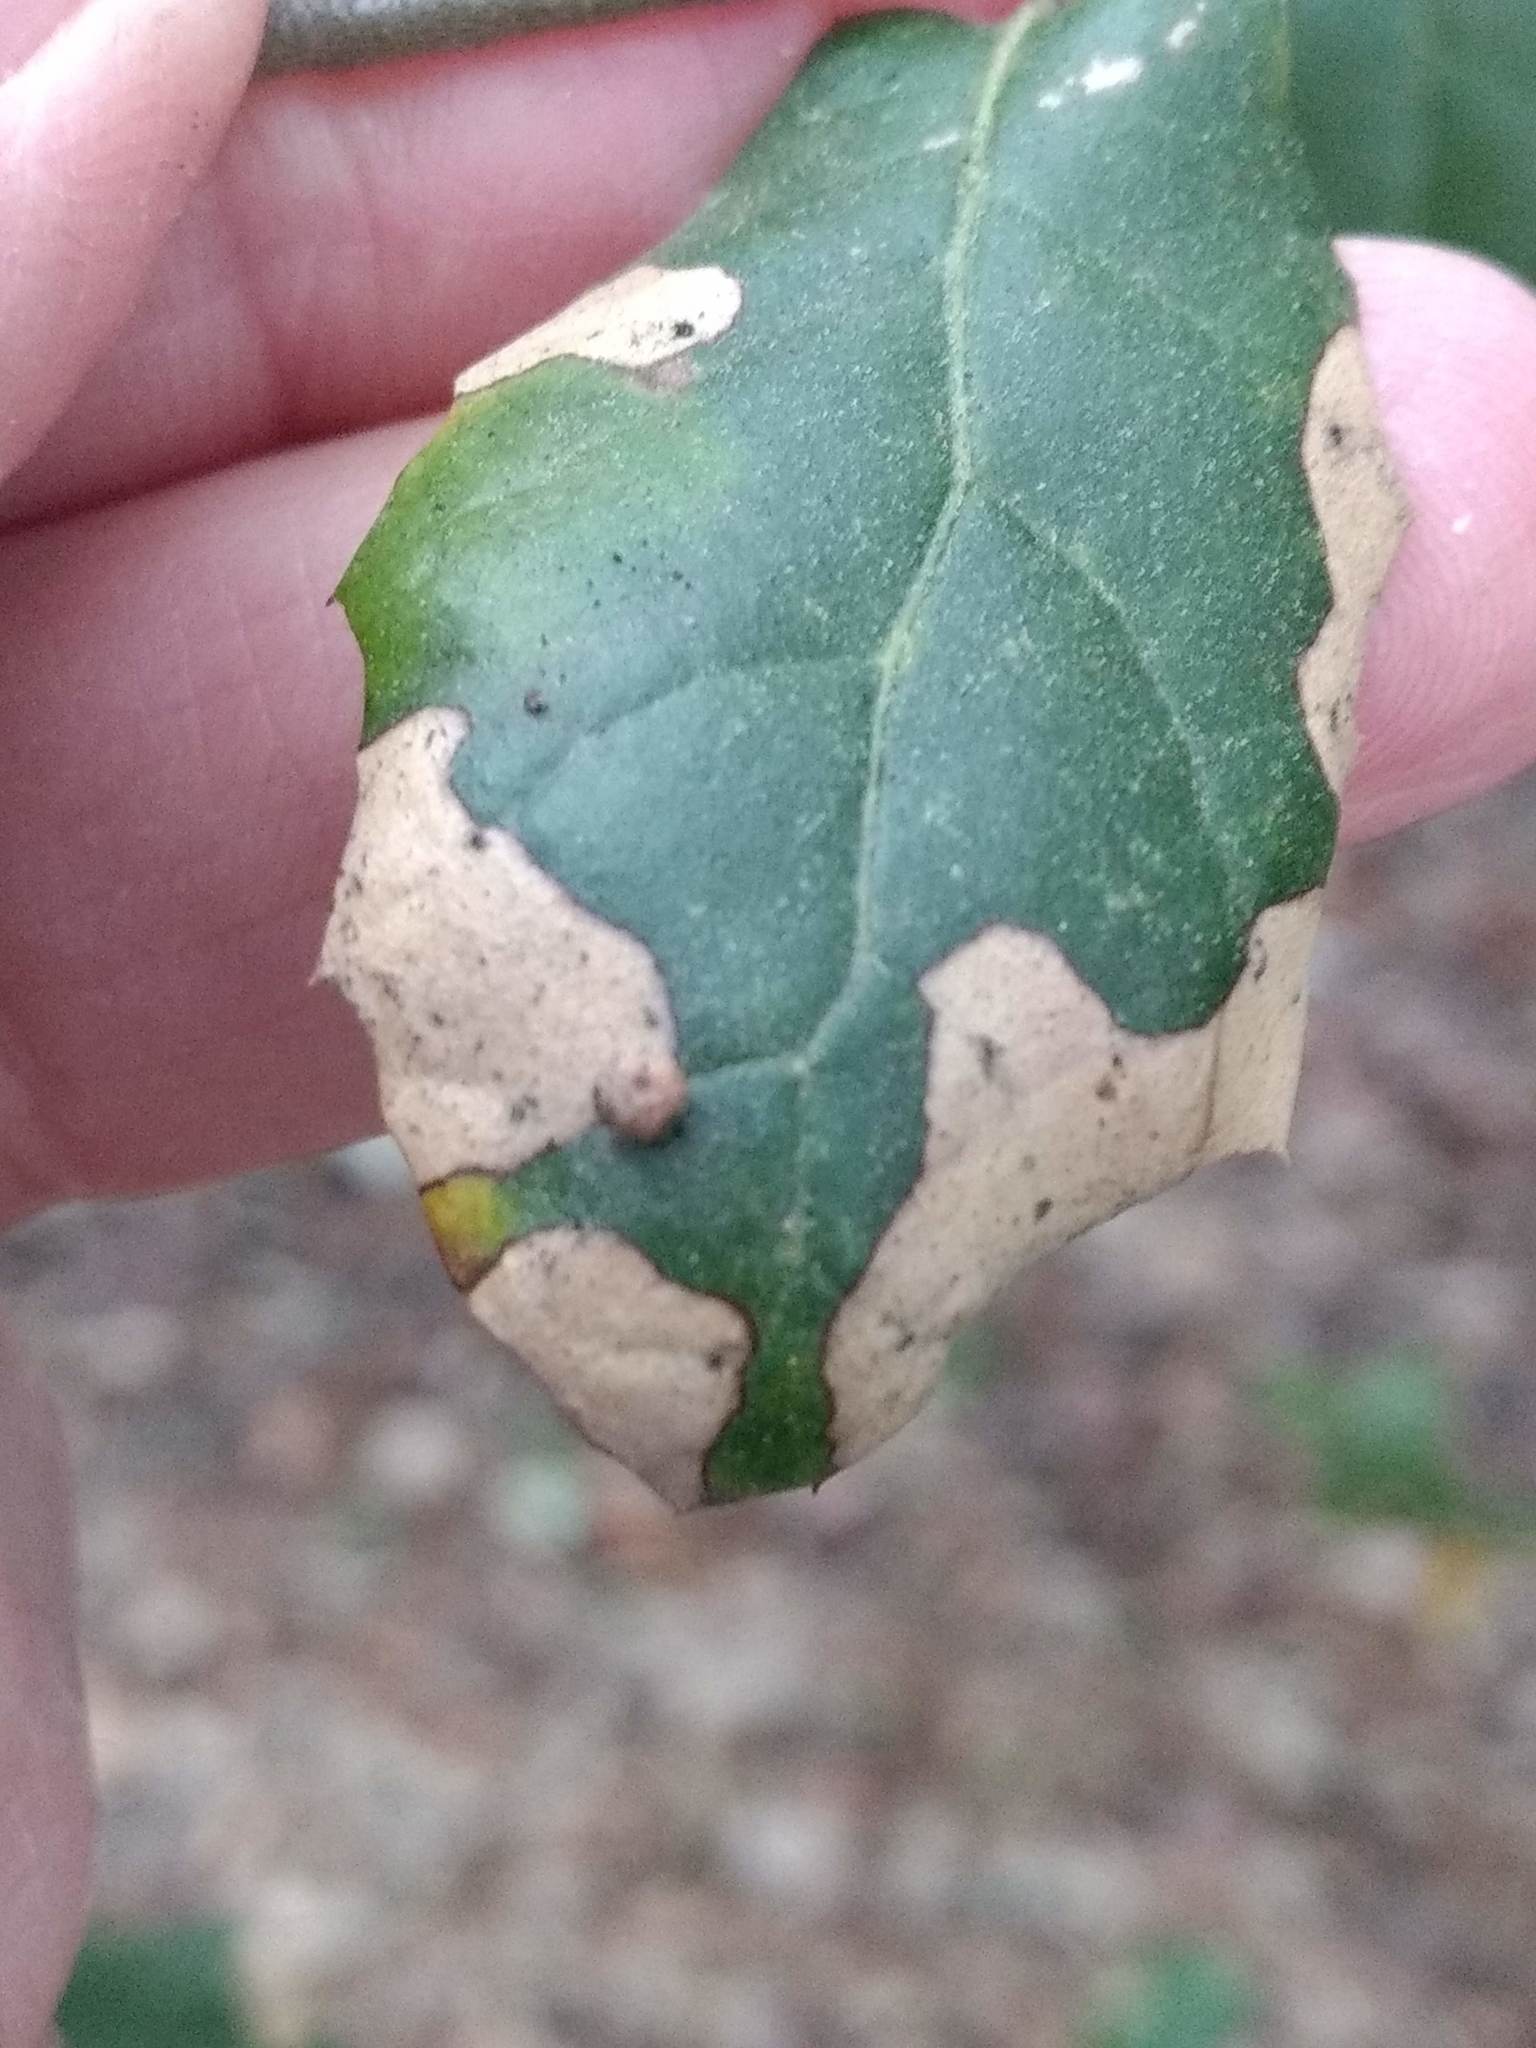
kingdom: Animalia
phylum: Arthropoda
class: Insecta
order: Hymenoptera
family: Cynipidae
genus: Dryocosmus
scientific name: Dryocosmus
